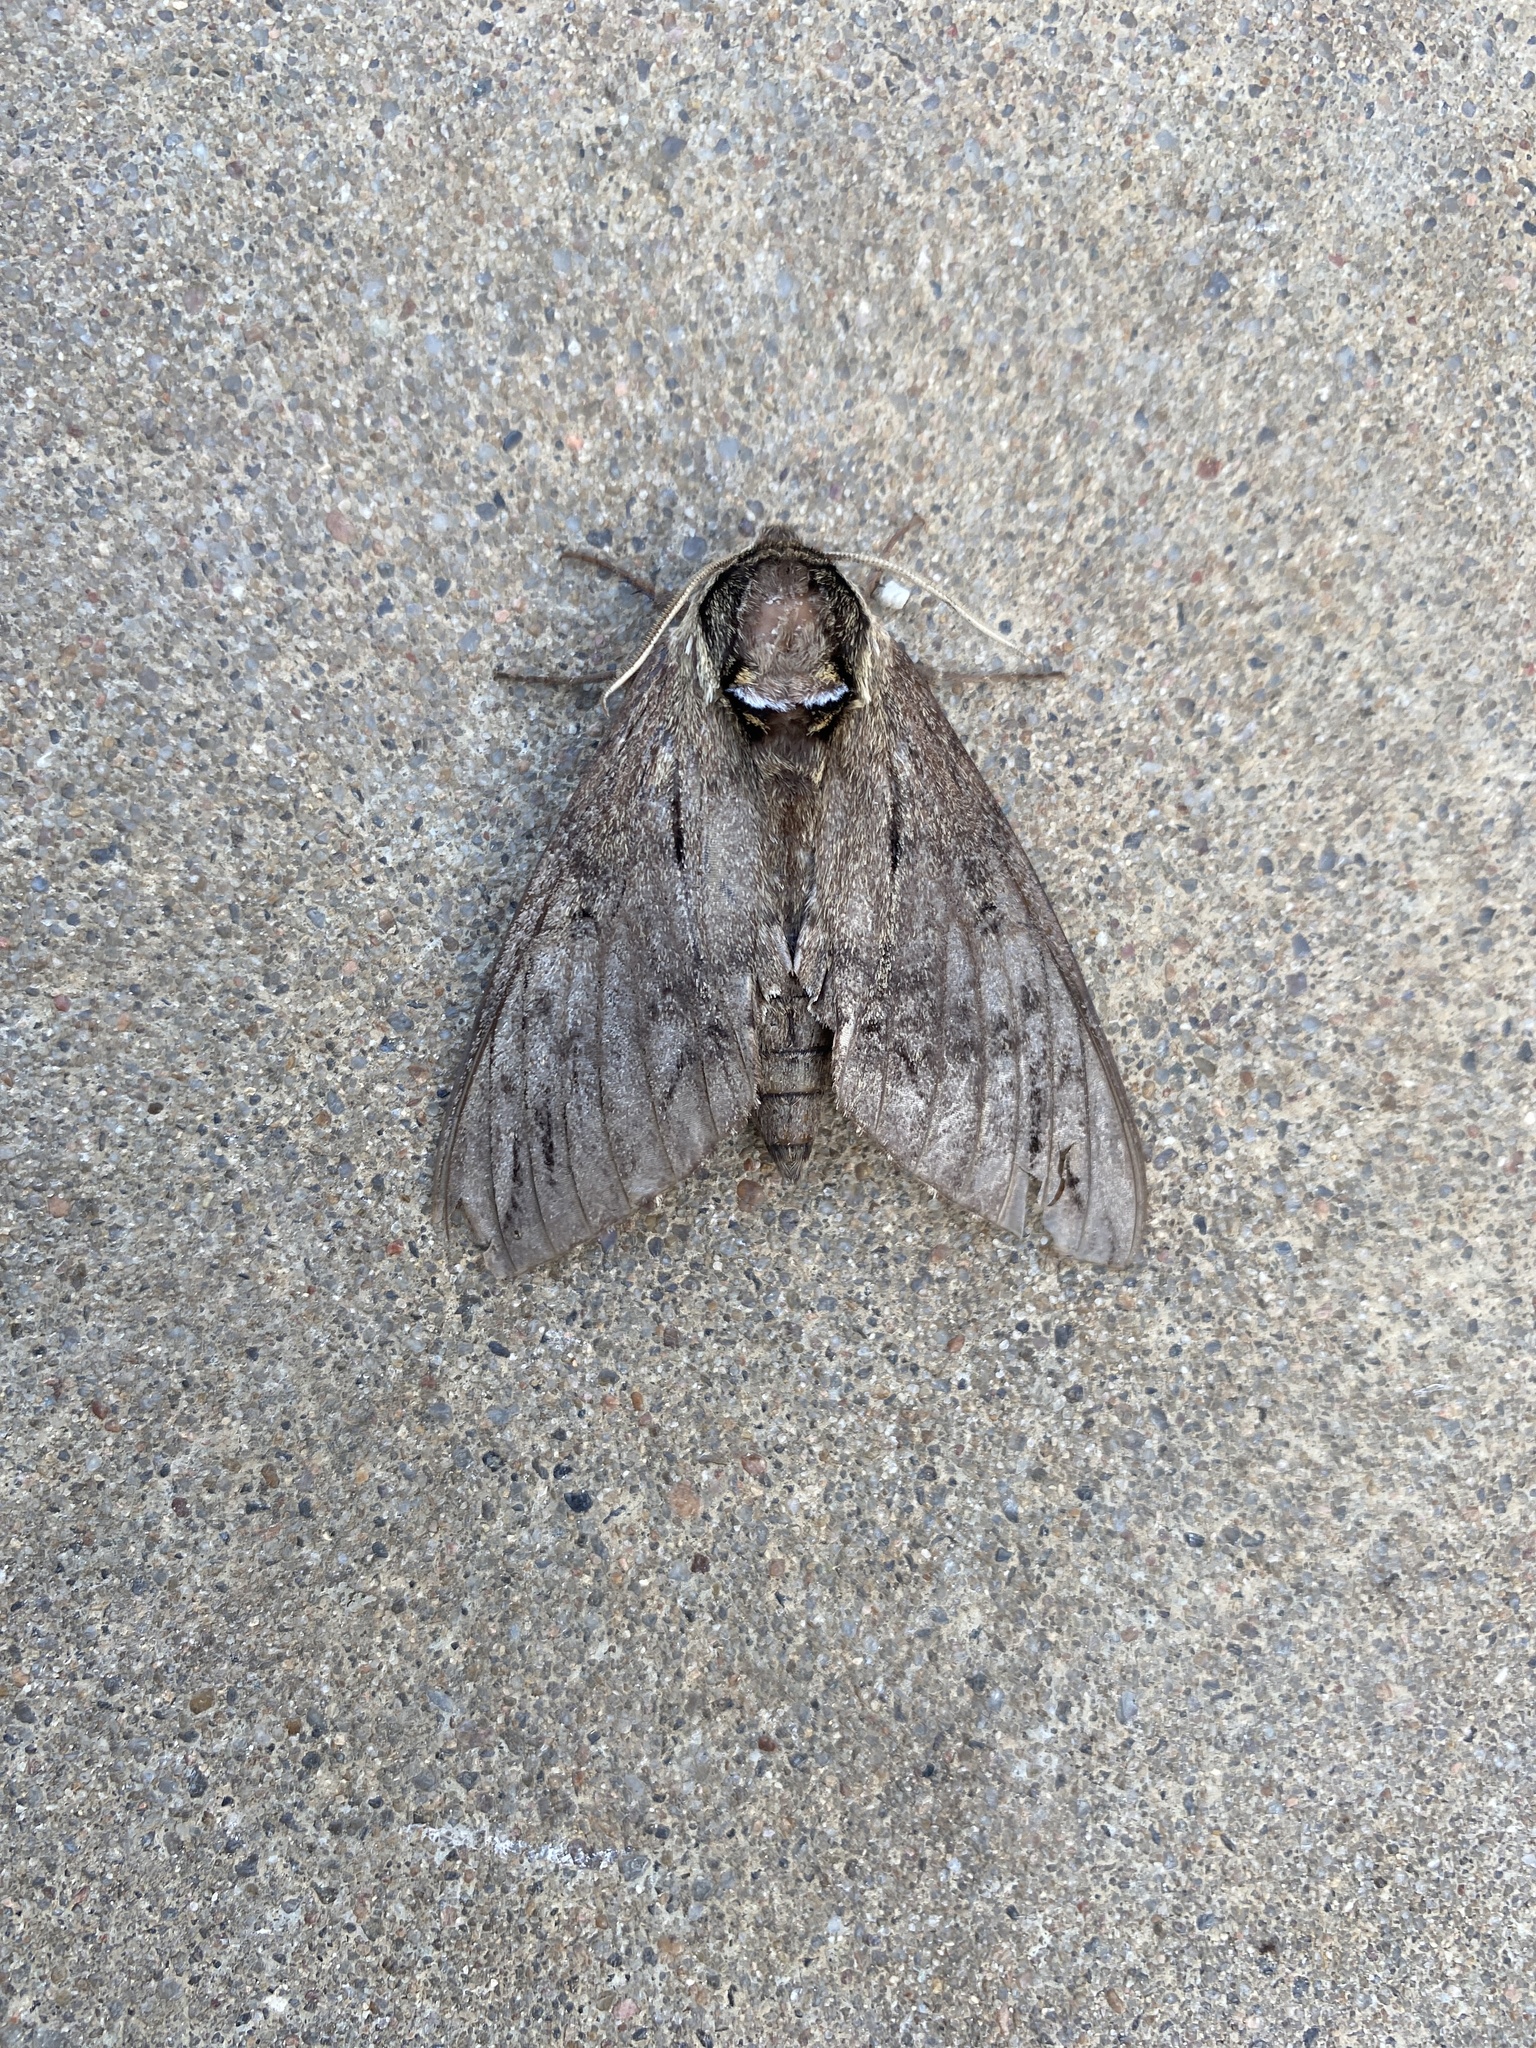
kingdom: Animalia
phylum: Arthropoda
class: Insecta
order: Lepidoptera
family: Sphingidae
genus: Ceratomia
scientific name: Ceratomia catalpae
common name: Catalpa hornworm
